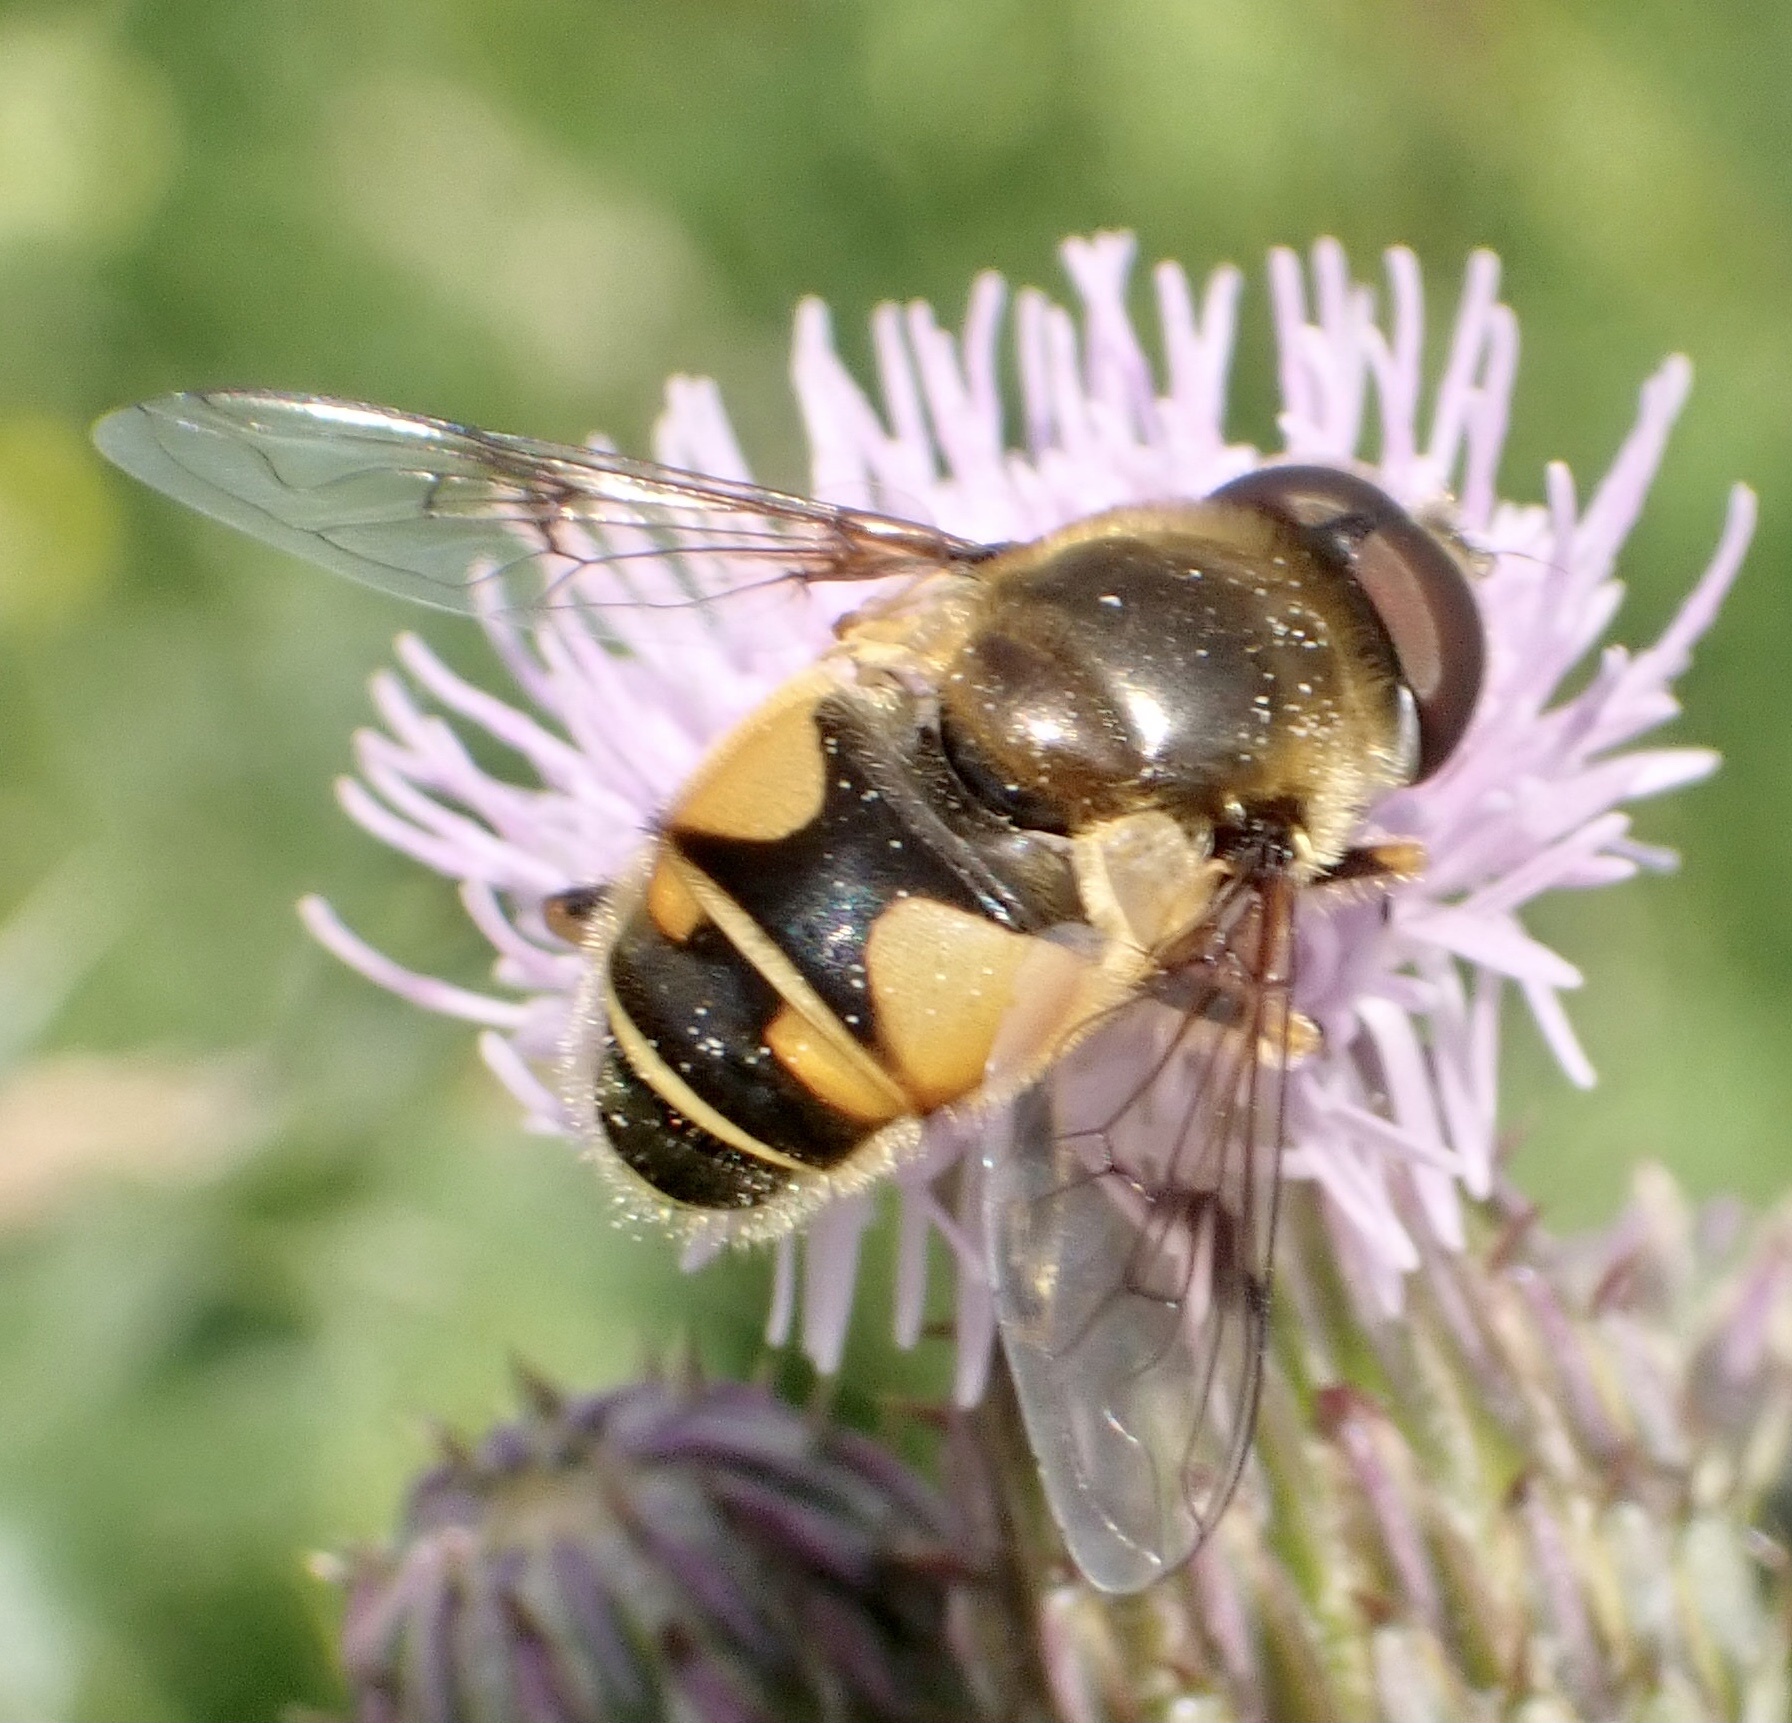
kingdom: Animalia
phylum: Arthropoda
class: Insecta
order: Diptera
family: Syrphidae
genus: Cheilosia
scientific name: Cheilosia morio
